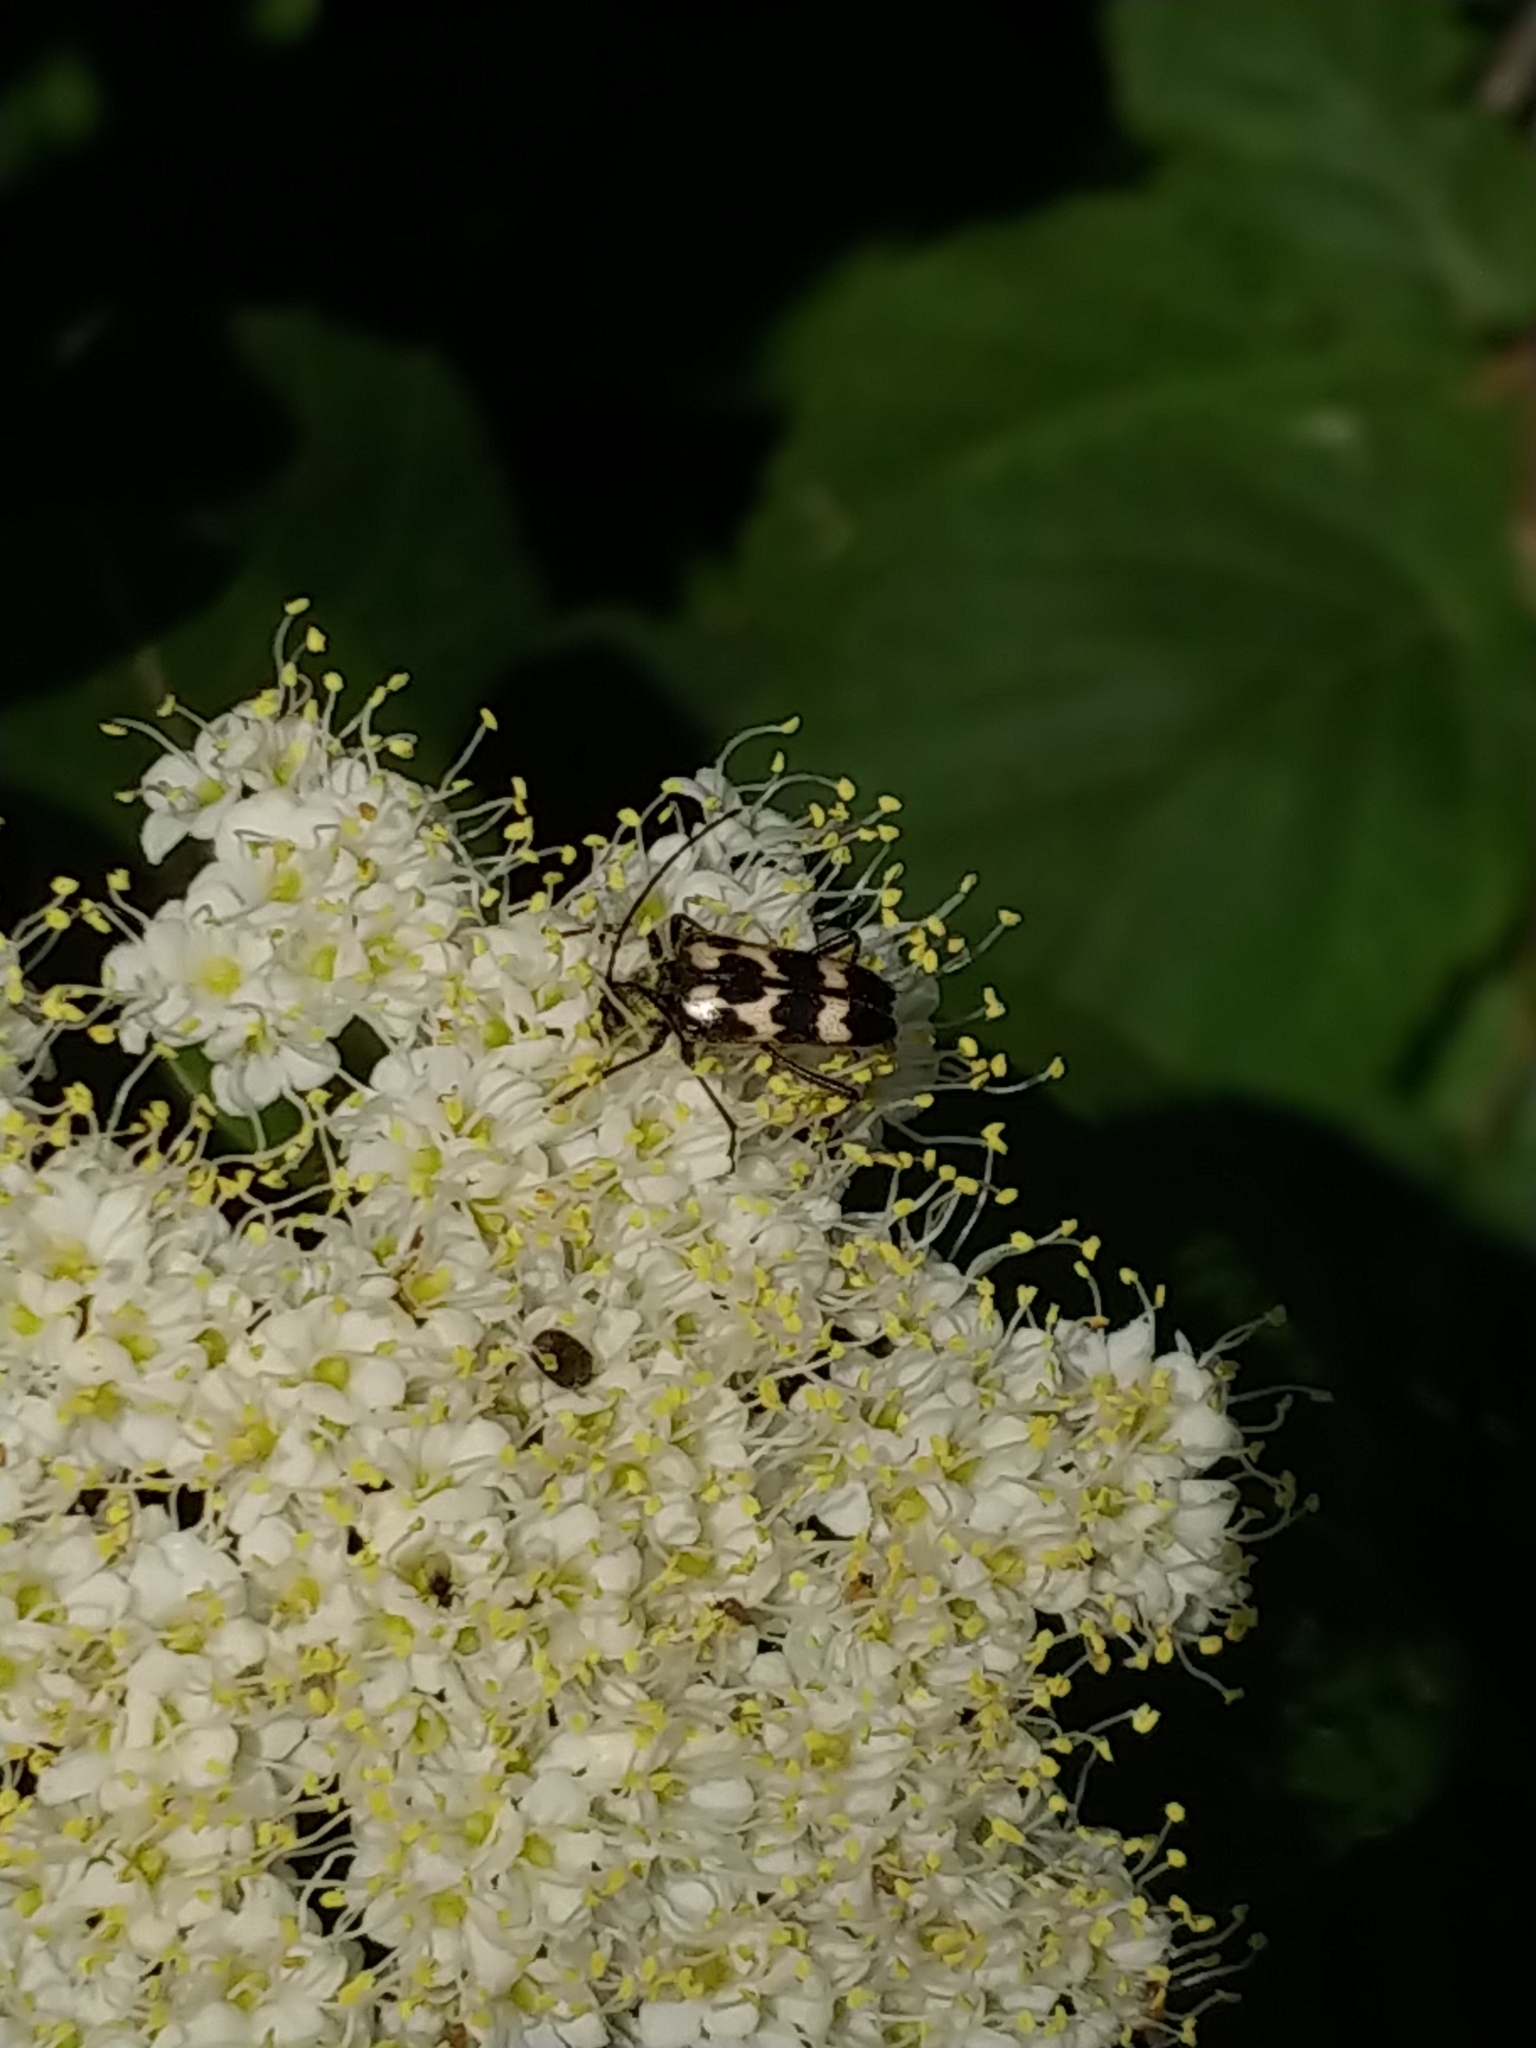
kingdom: Animalia
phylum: Arthropoda
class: Insecta
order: Coleoptera
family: Cerambycidae
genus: Judolia
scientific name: Judolia montivagans
